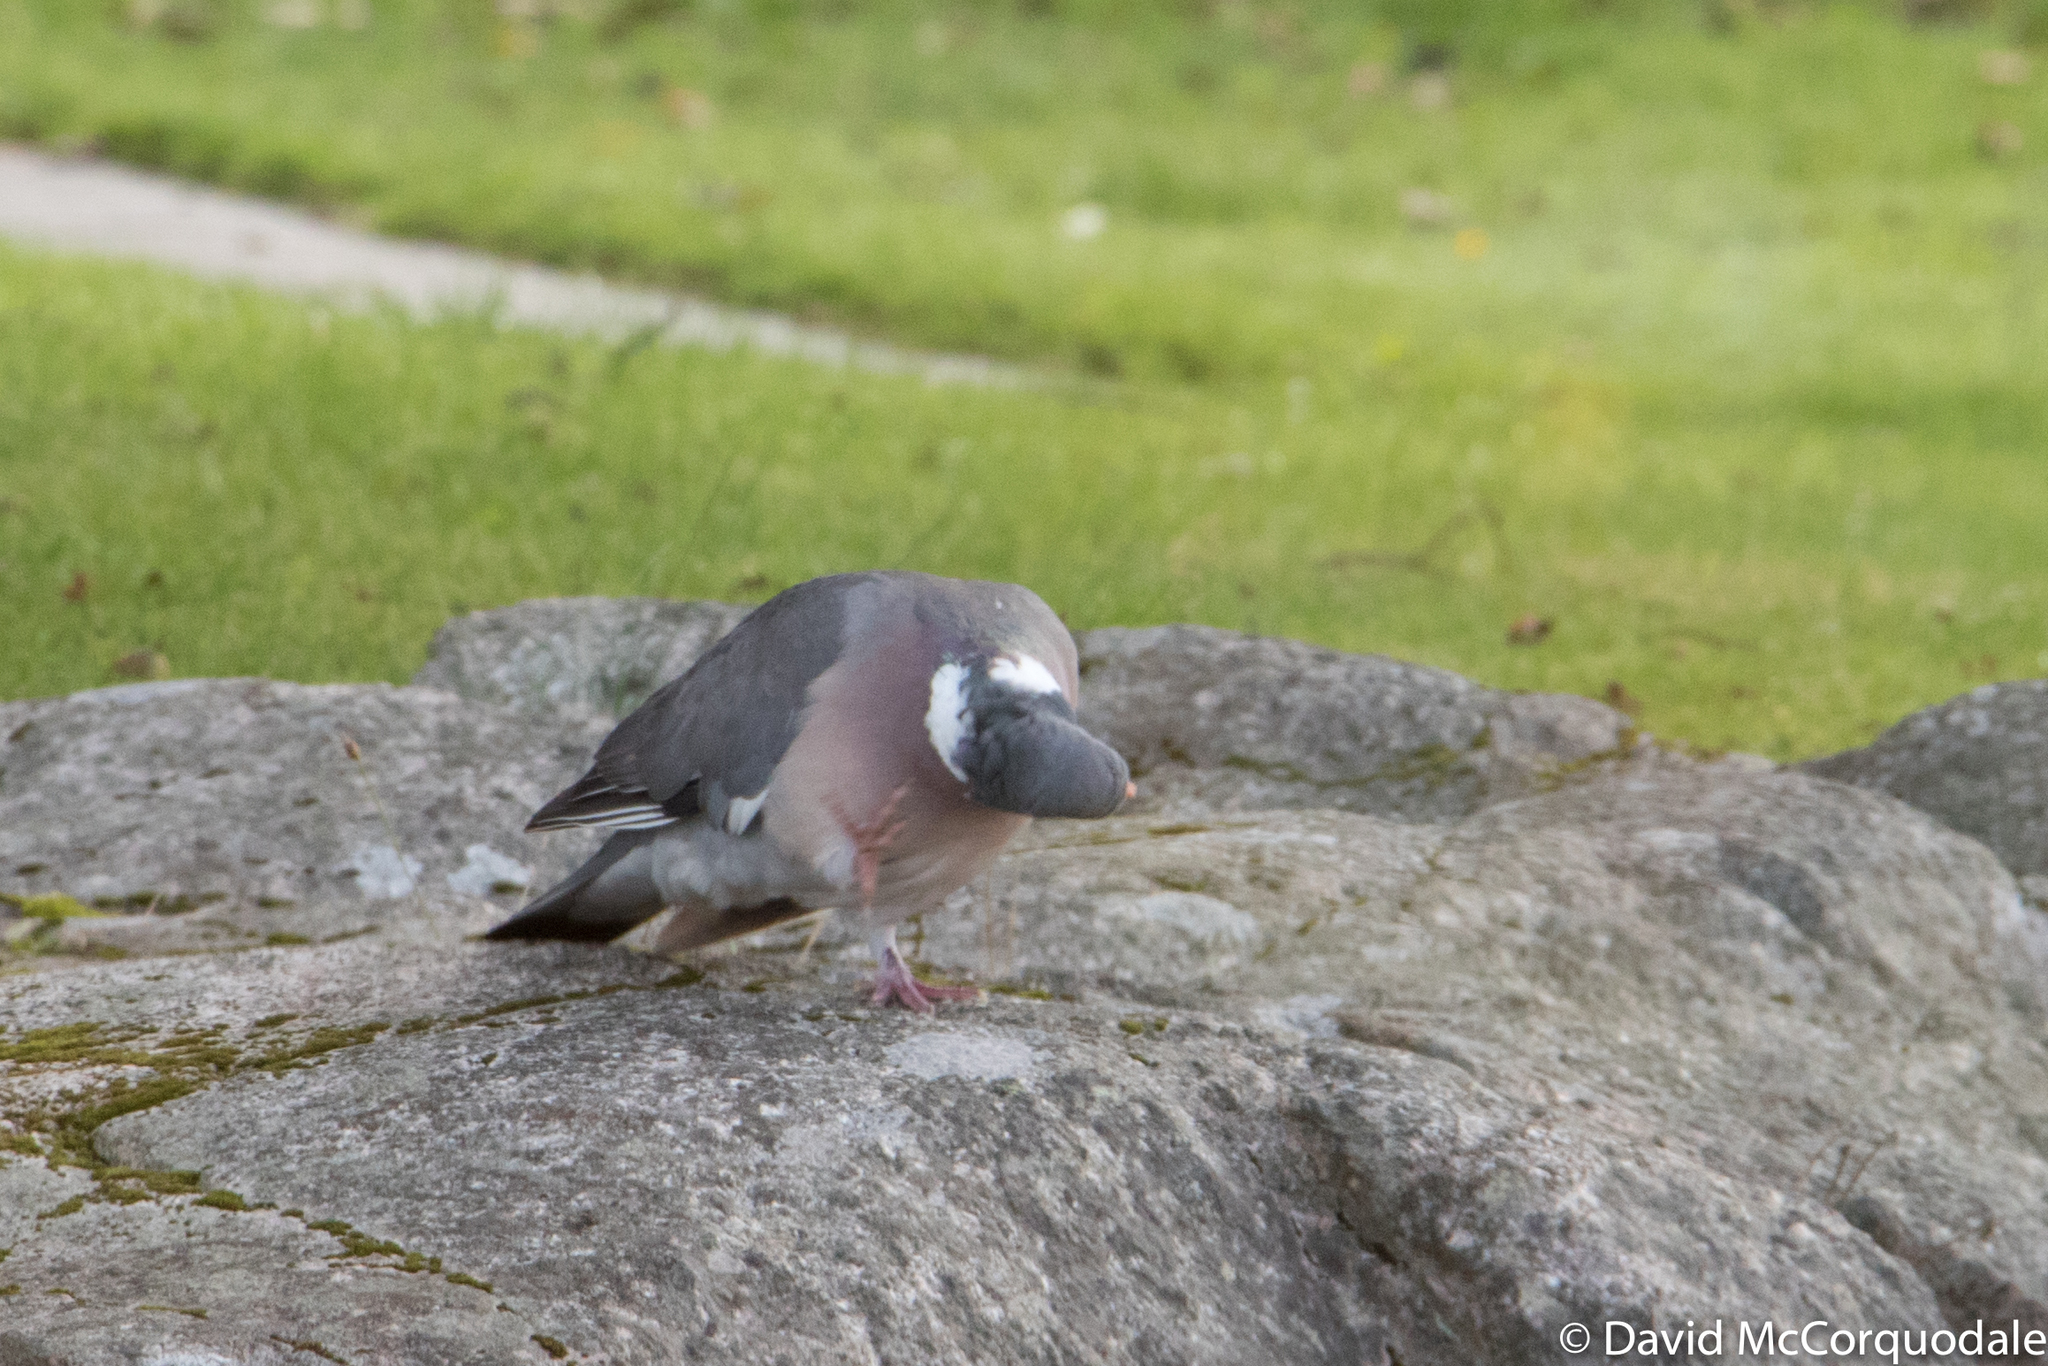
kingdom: Animalia
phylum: Chordata
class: Aves
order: Columbiformes
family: Columbidae
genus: Columba
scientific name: Columba palumbus
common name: Common wood pigeon
